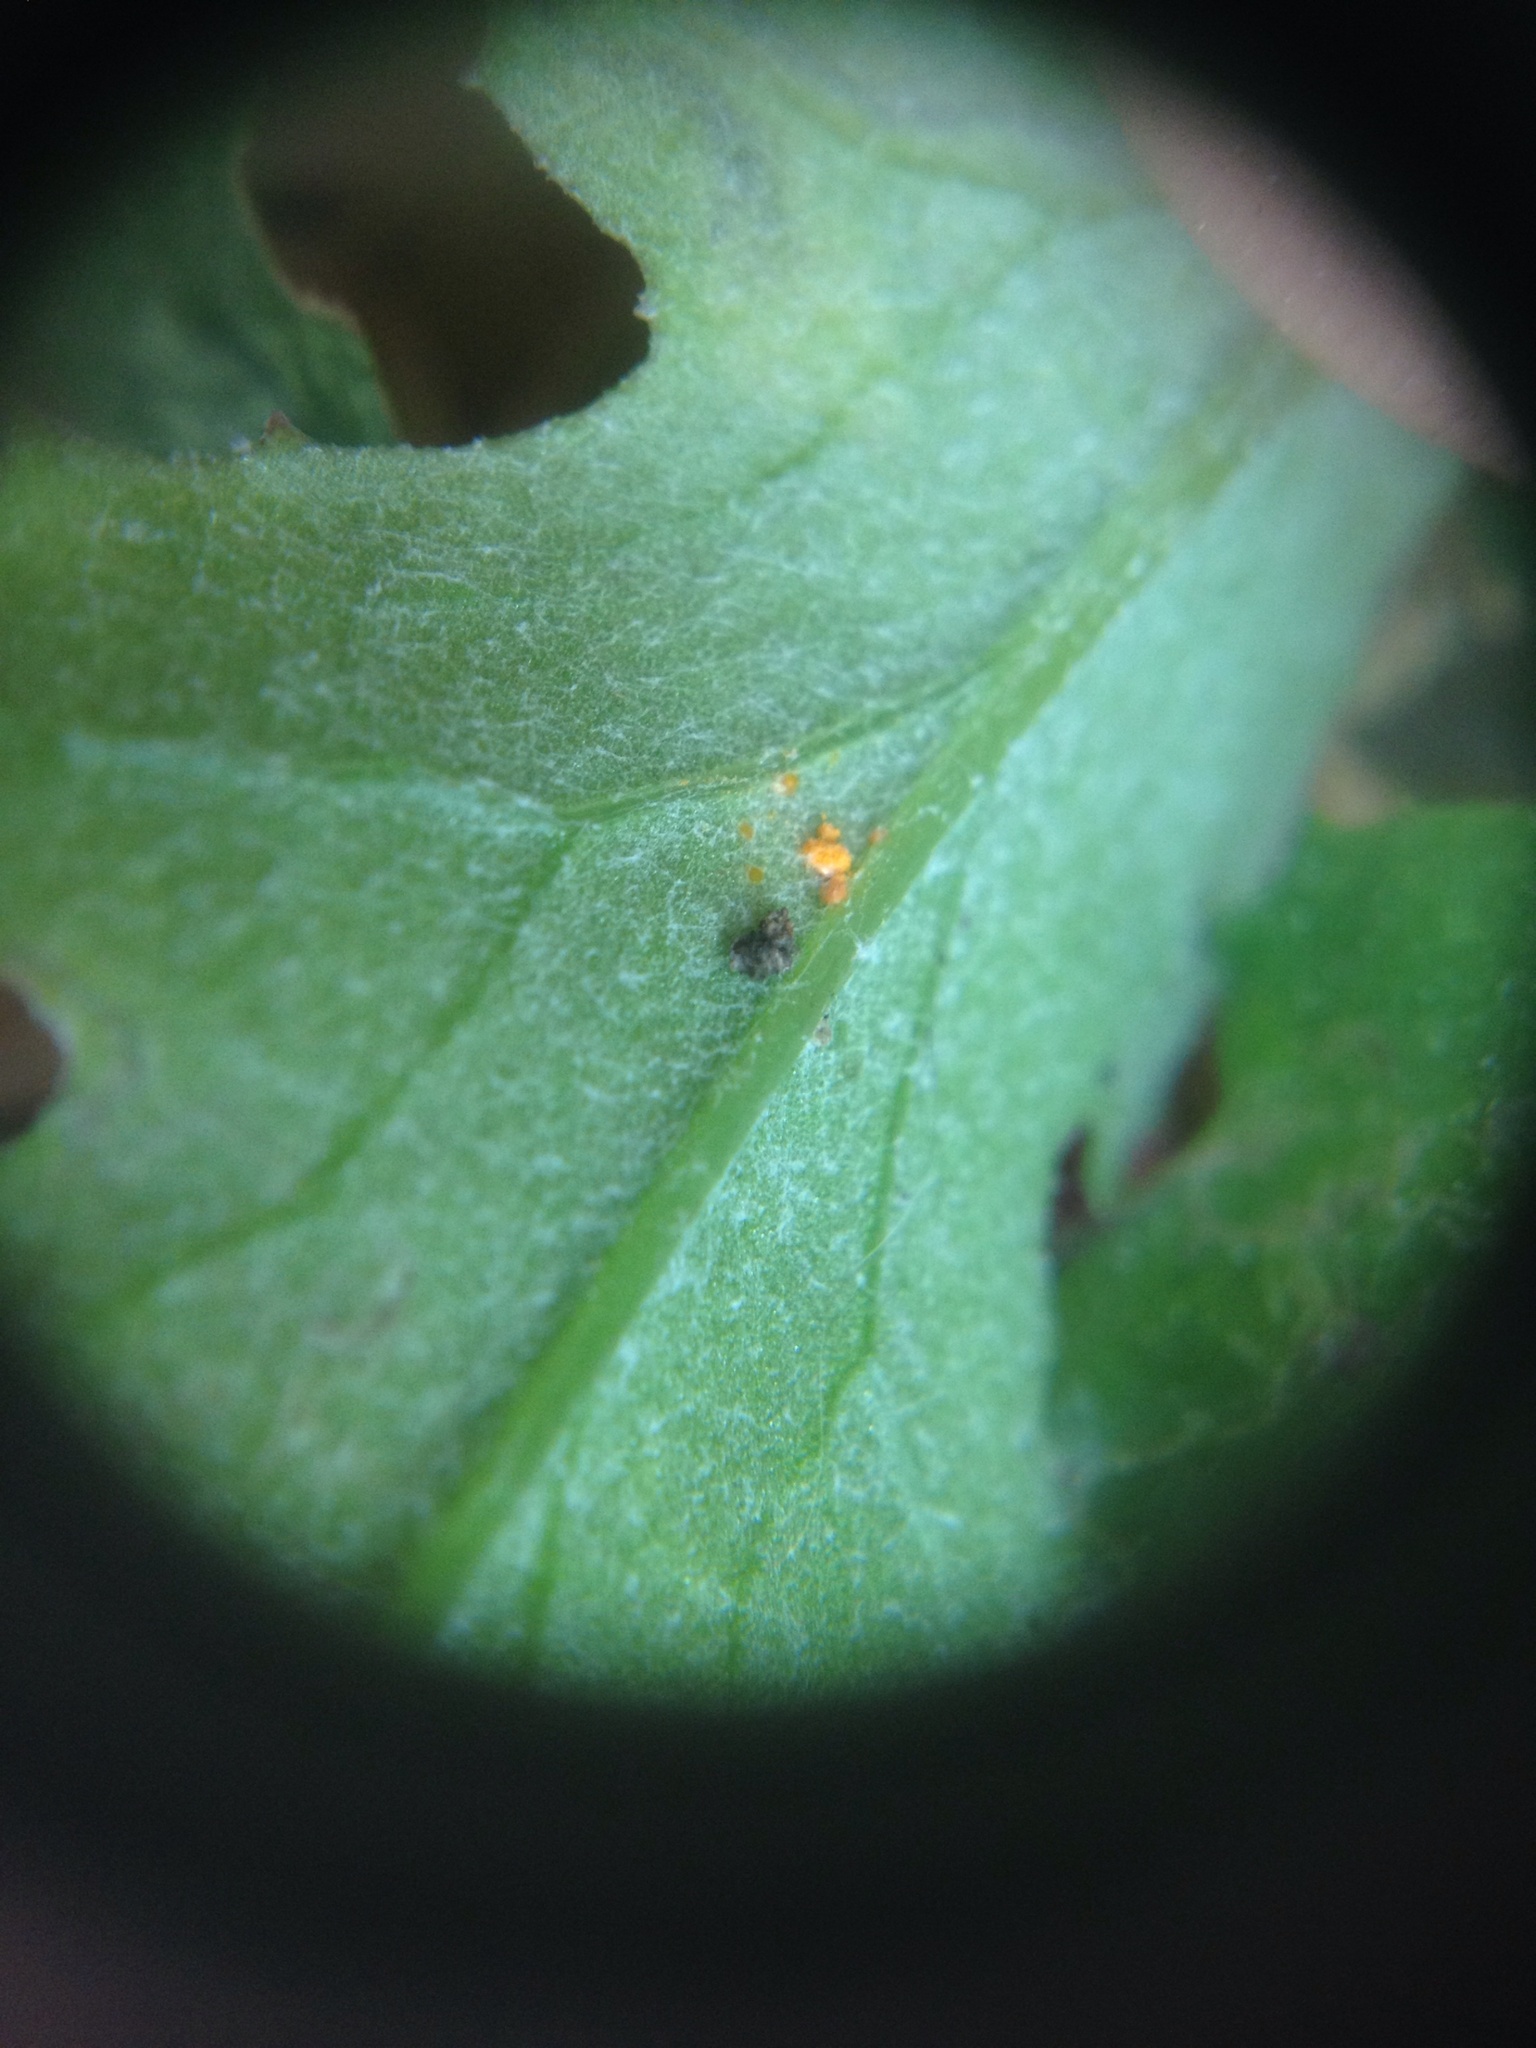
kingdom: Fungi
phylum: Basidiomycota
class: Pucciniomycetes
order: Pucciniales
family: Coleosporiaceae
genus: Coleosporium
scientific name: Coleosporium tussilaginis
